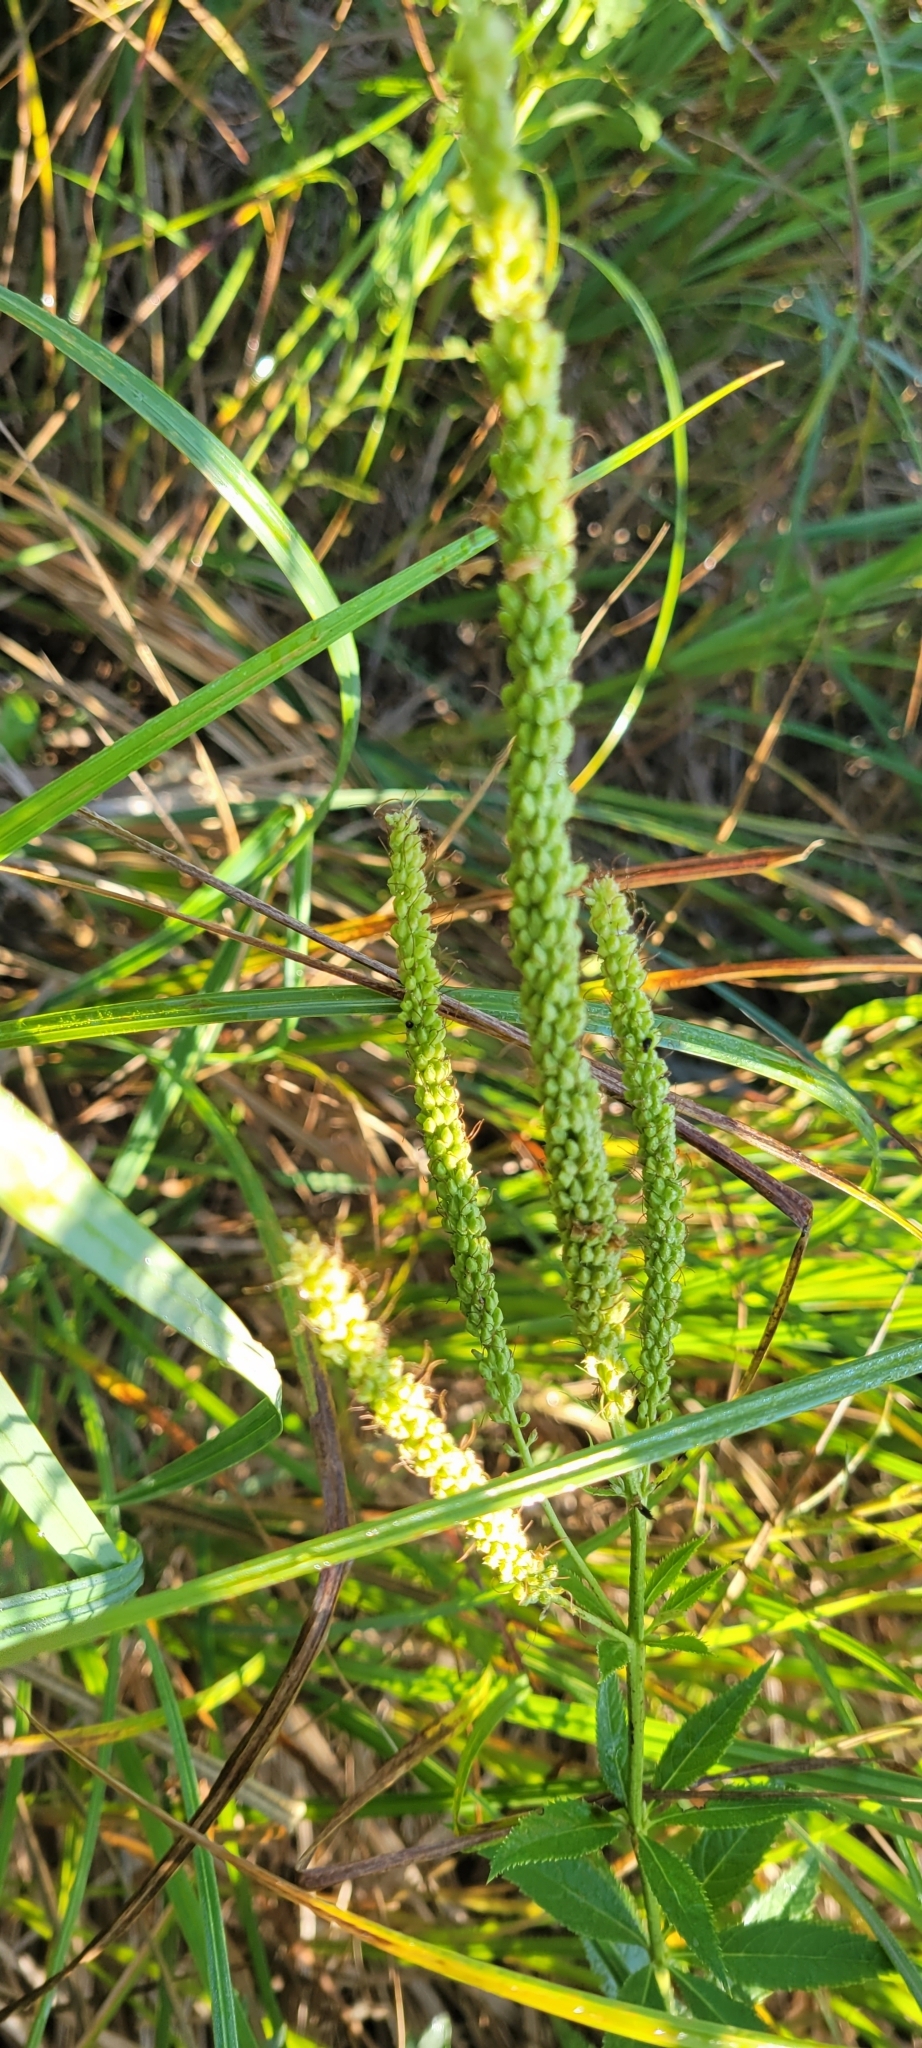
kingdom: Plantae
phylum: Tracheophyta
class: Magnoliopsida
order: Lamiales
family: Plantaginaceae
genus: Veronicastrum
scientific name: Veronicastrum virginicum
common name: Blackroot
